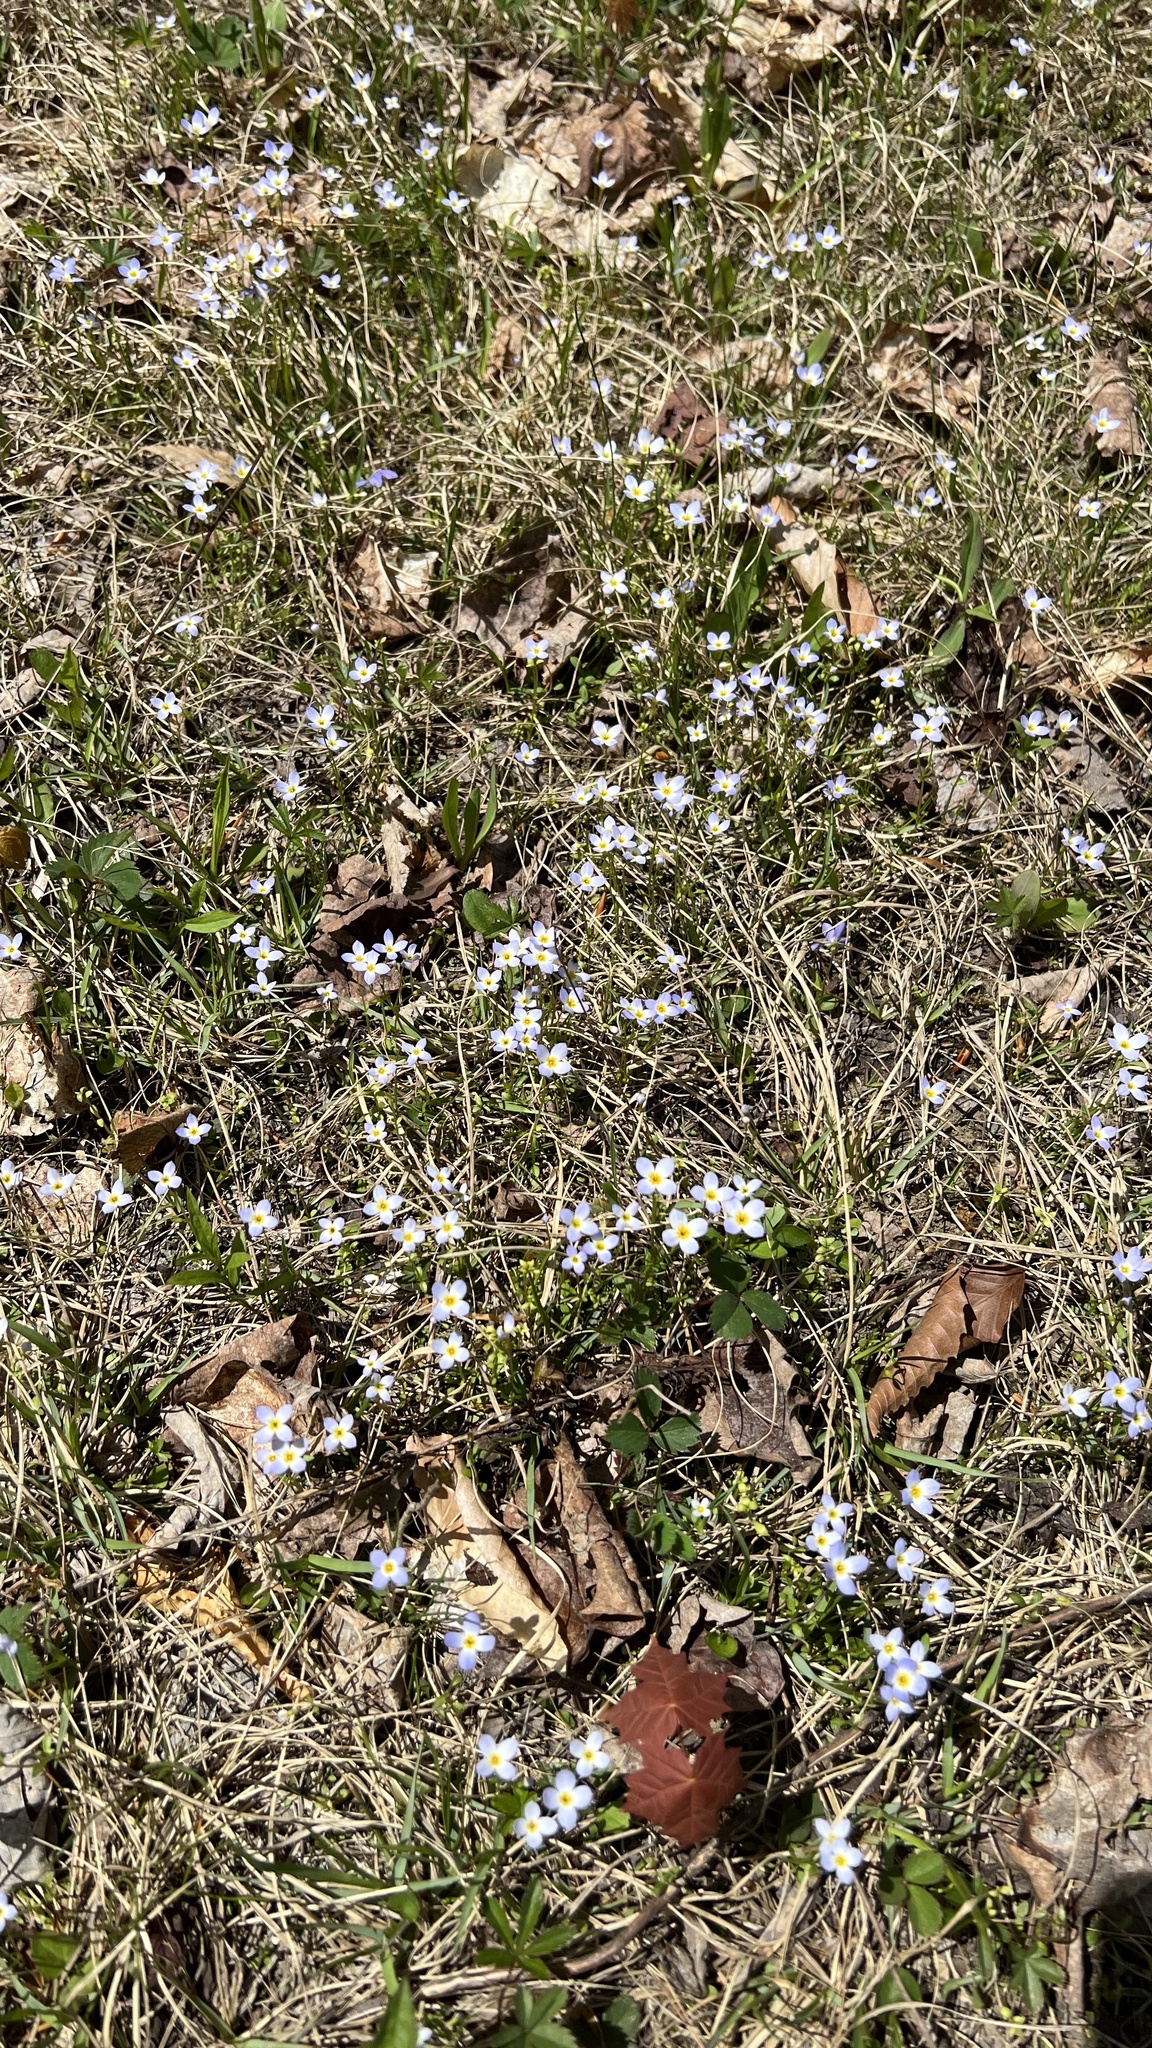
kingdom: Plantae
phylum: Tracheophyta
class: Magnoliopsida
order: Gentianales
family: Rubiaceae
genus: Houstonia
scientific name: Houstonia caerulea
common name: Bluets
